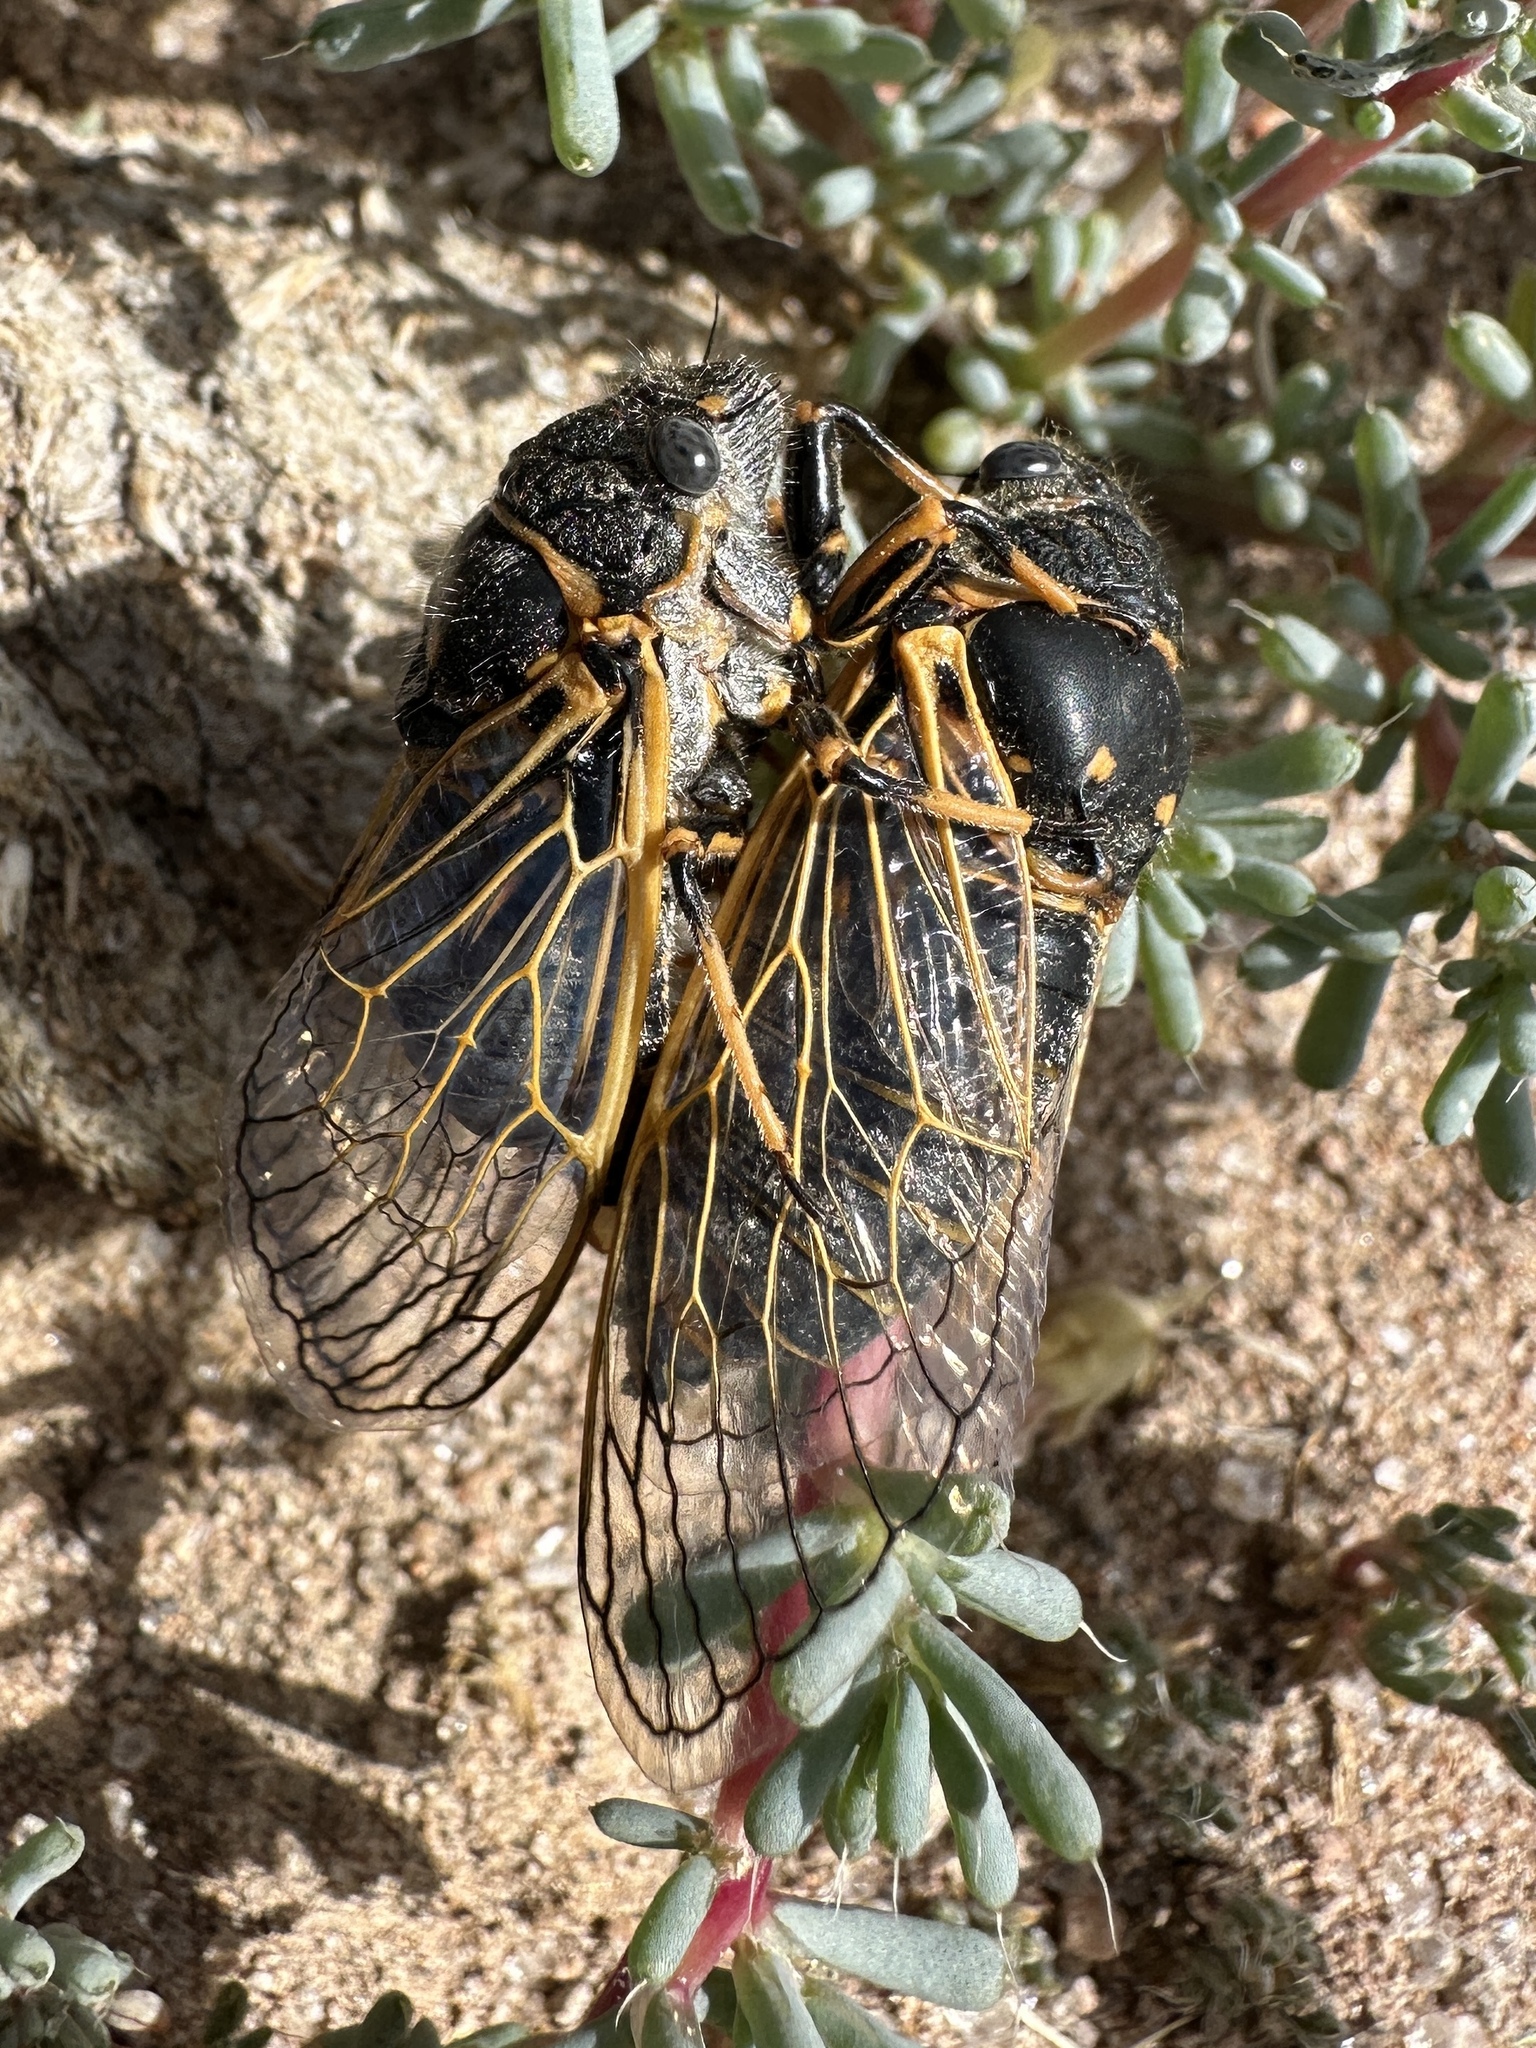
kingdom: Animalia
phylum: Arthropoda
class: Insecta
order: Hemiptera
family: Cicadidae
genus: Okanagana
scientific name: Okanagana gibbera
